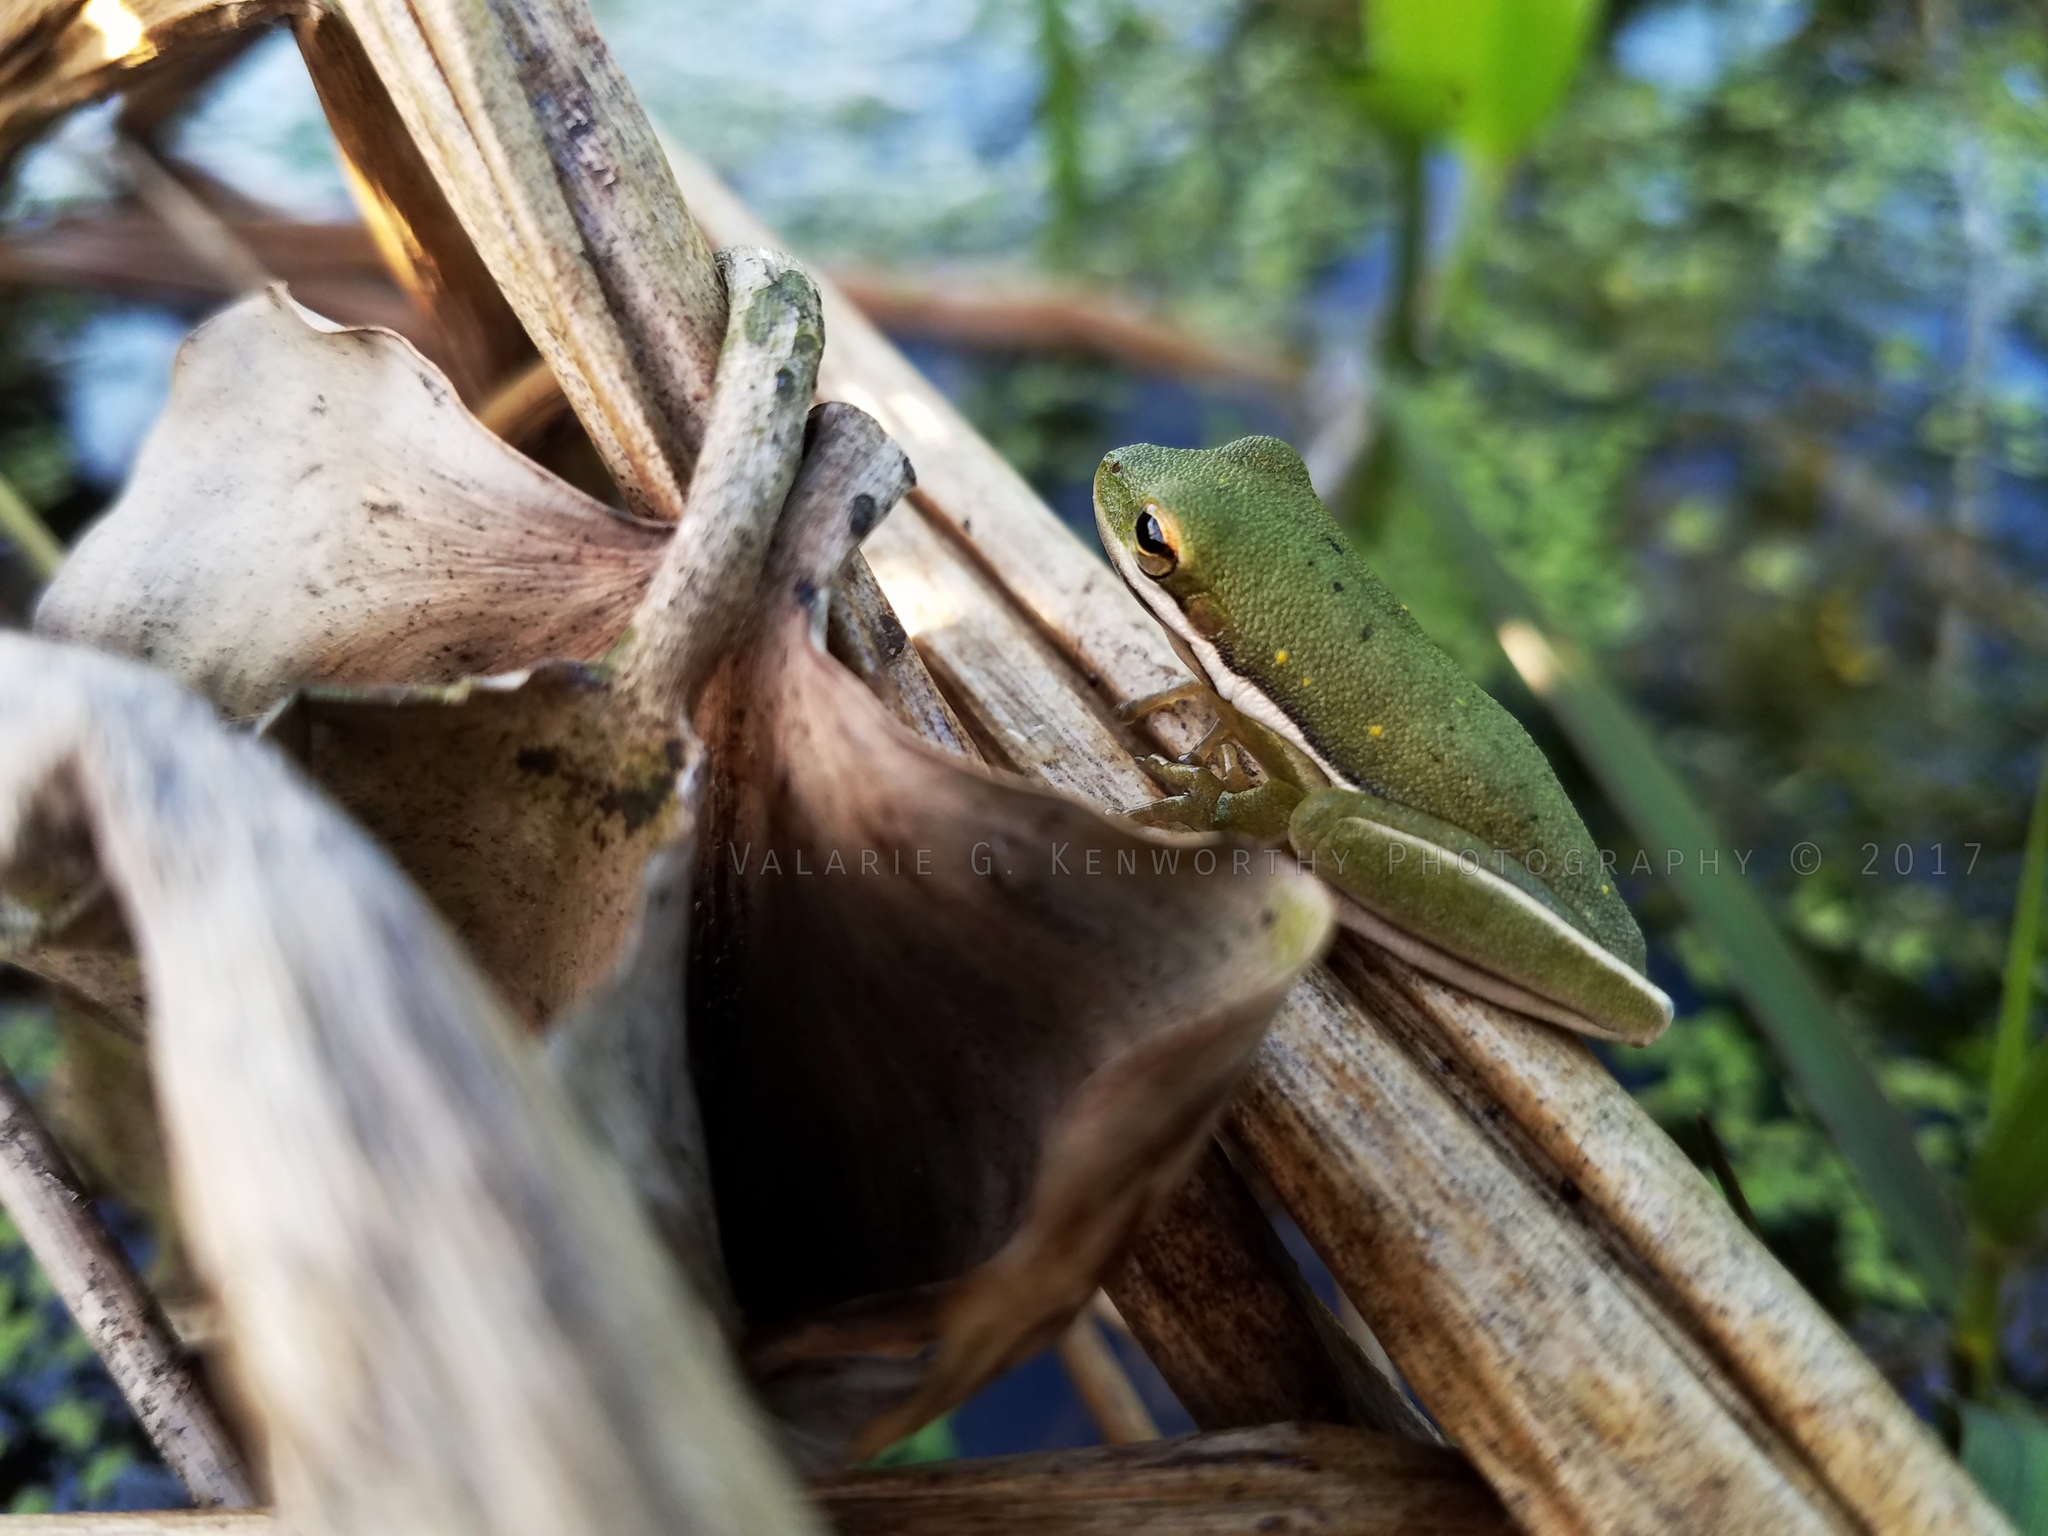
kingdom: Animalia
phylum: Chordata
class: Amphibia
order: Anura
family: Hylidae
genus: Dryophytes
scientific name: Dryophytes cinereus
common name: Green treefrog
